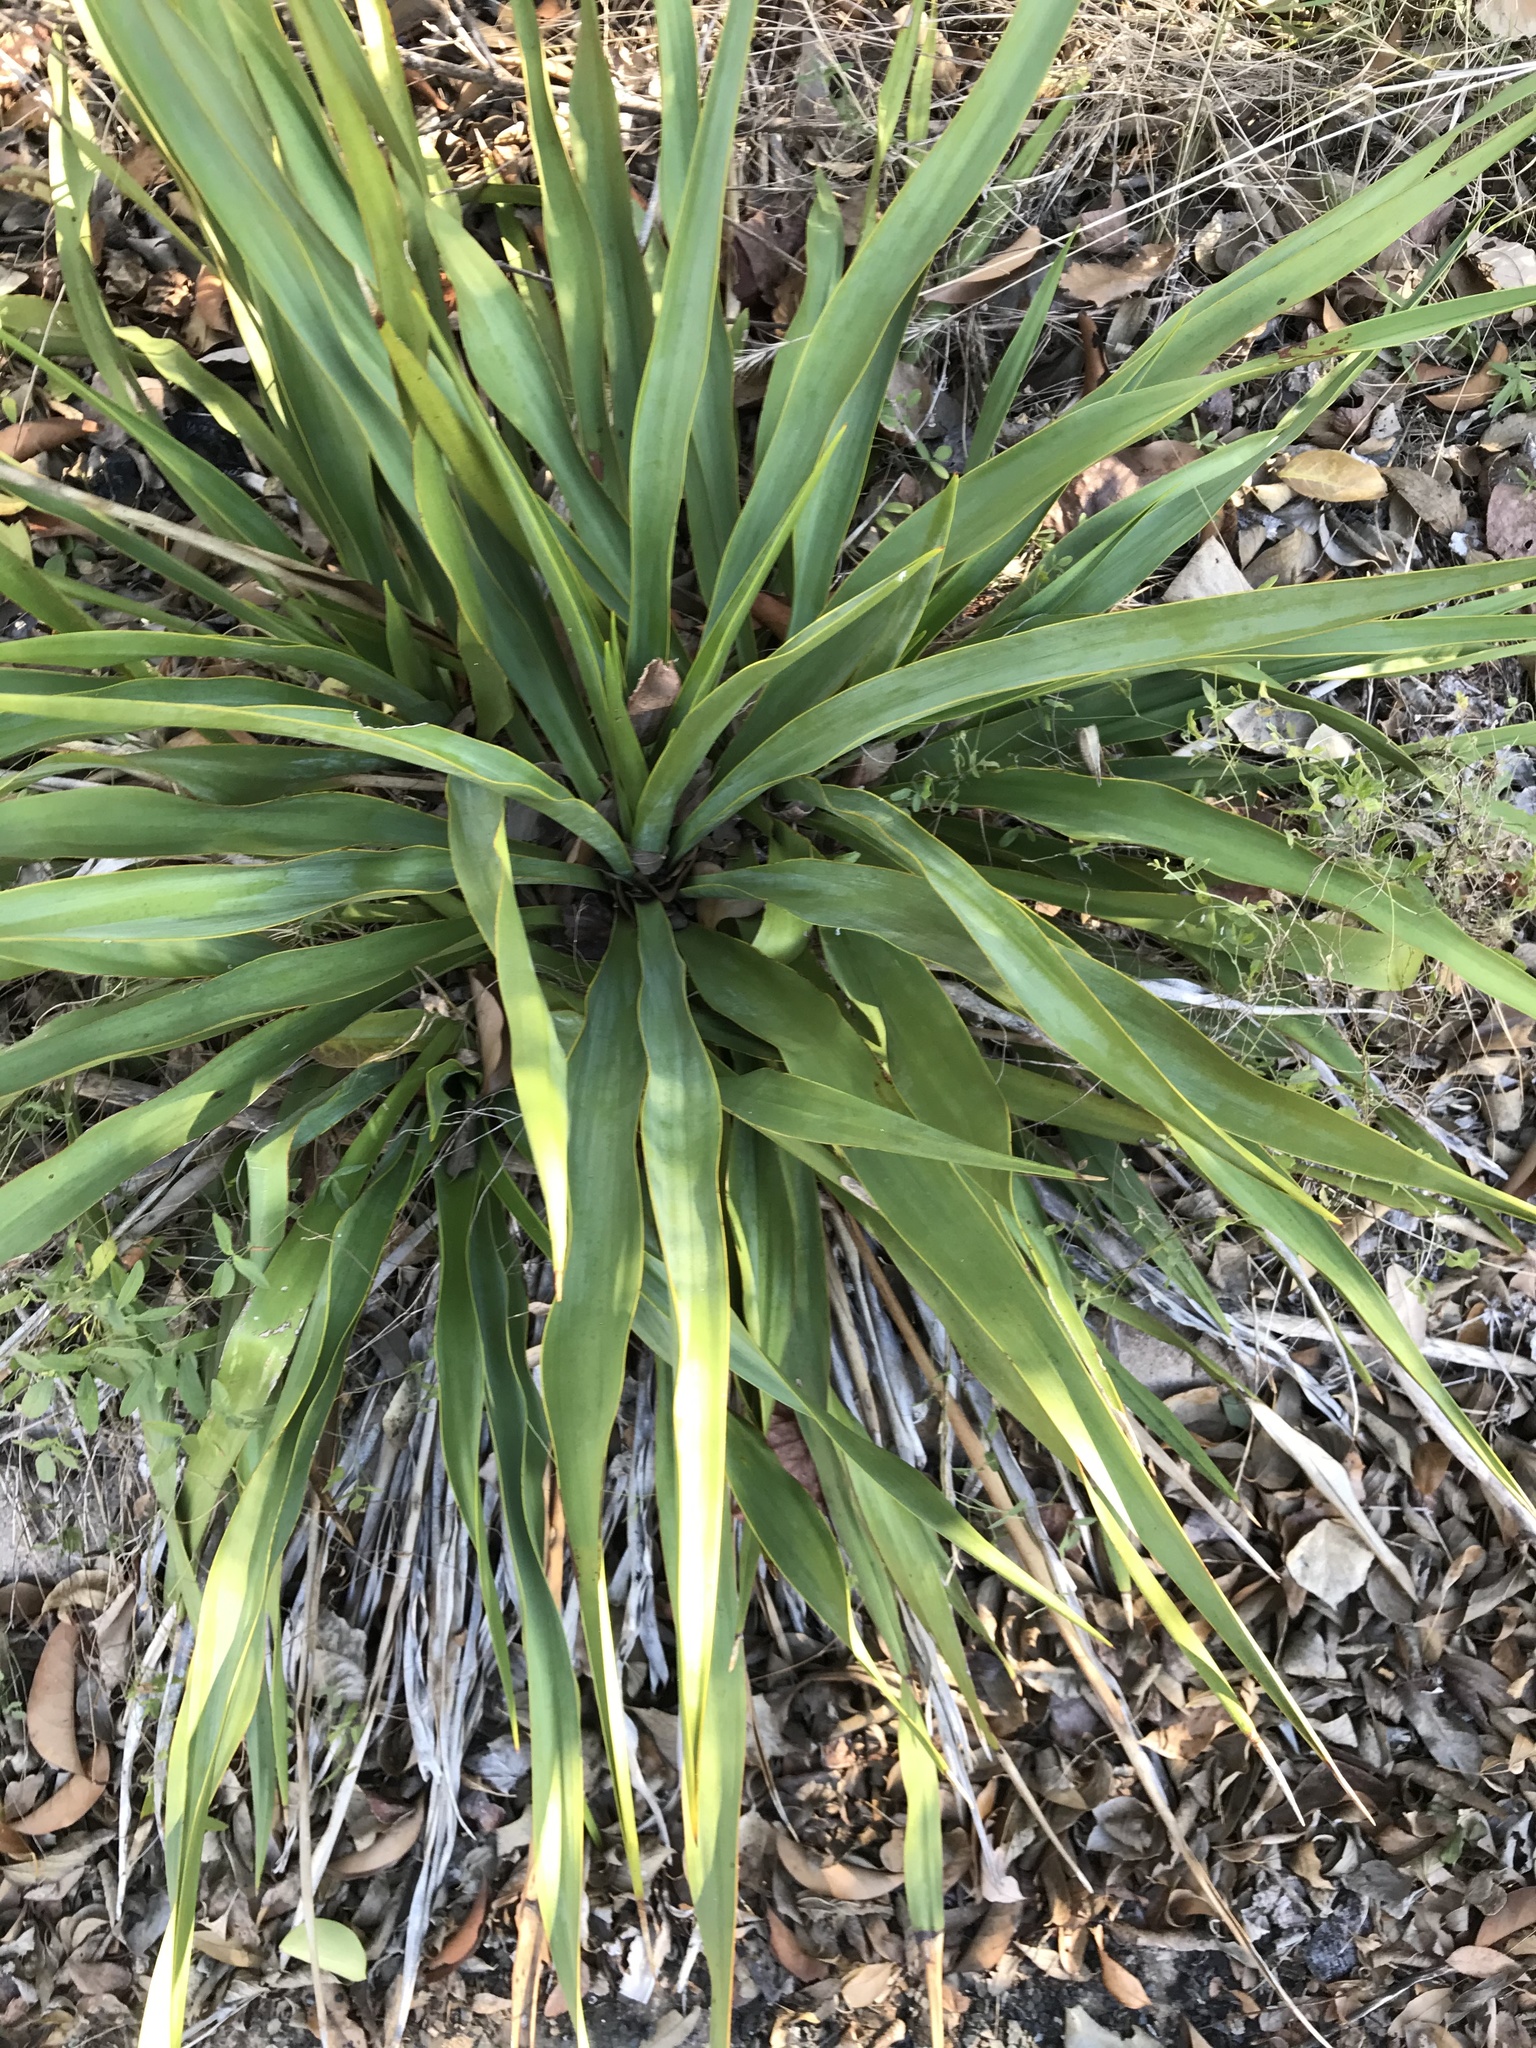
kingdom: Plantae
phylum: Tracheophyta
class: Liliopsida
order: Asparagales
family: Asparagaceae
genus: Yucca
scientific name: Yucca rupicola
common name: Twisted-leaf spanish-dagger
